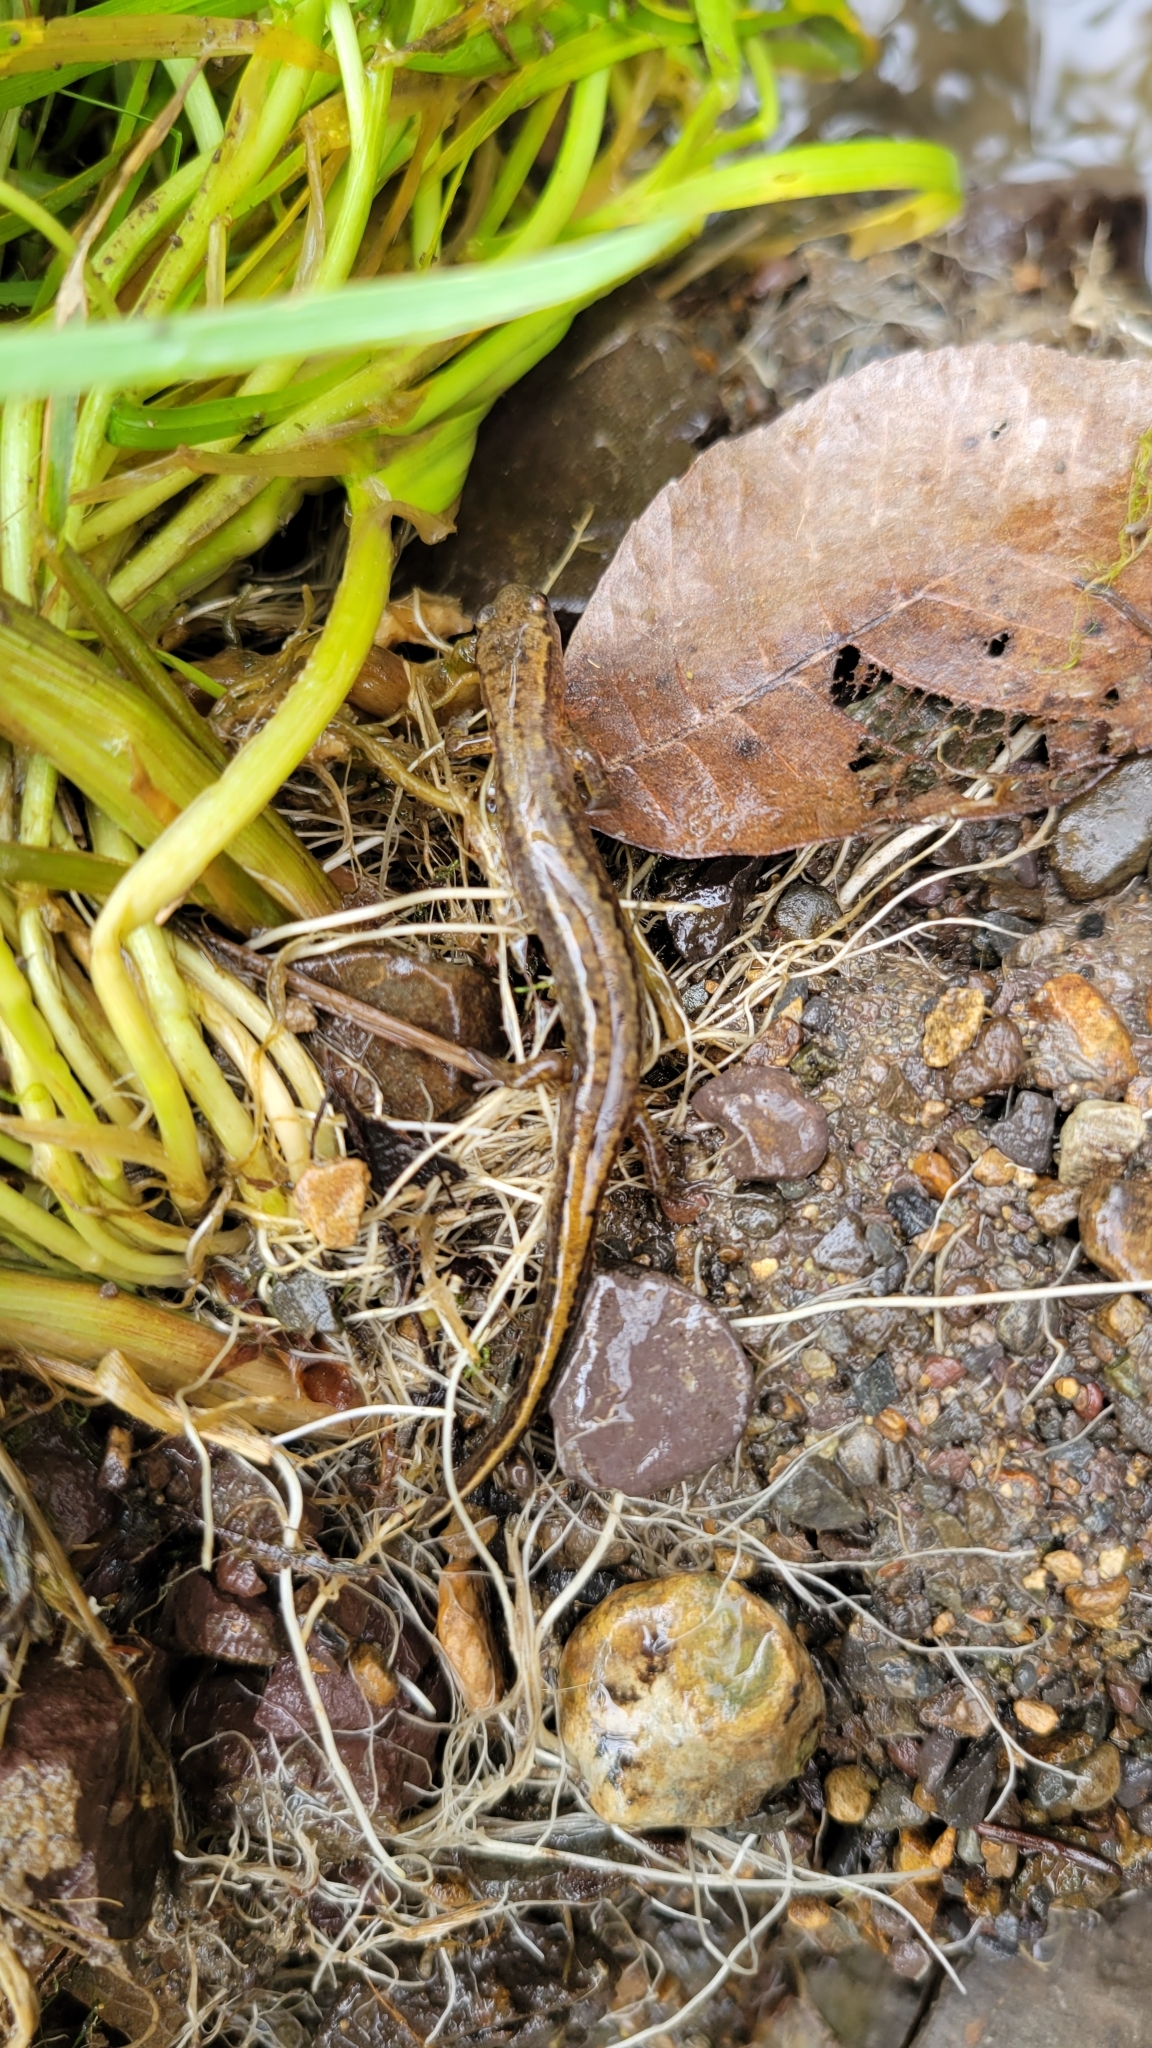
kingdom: Animalia
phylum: Chordata
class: Amphibia
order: Caudata
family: Plethodontidae
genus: Eurycea
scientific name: Eurycea bislineata
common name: Northern two-lined salamander
